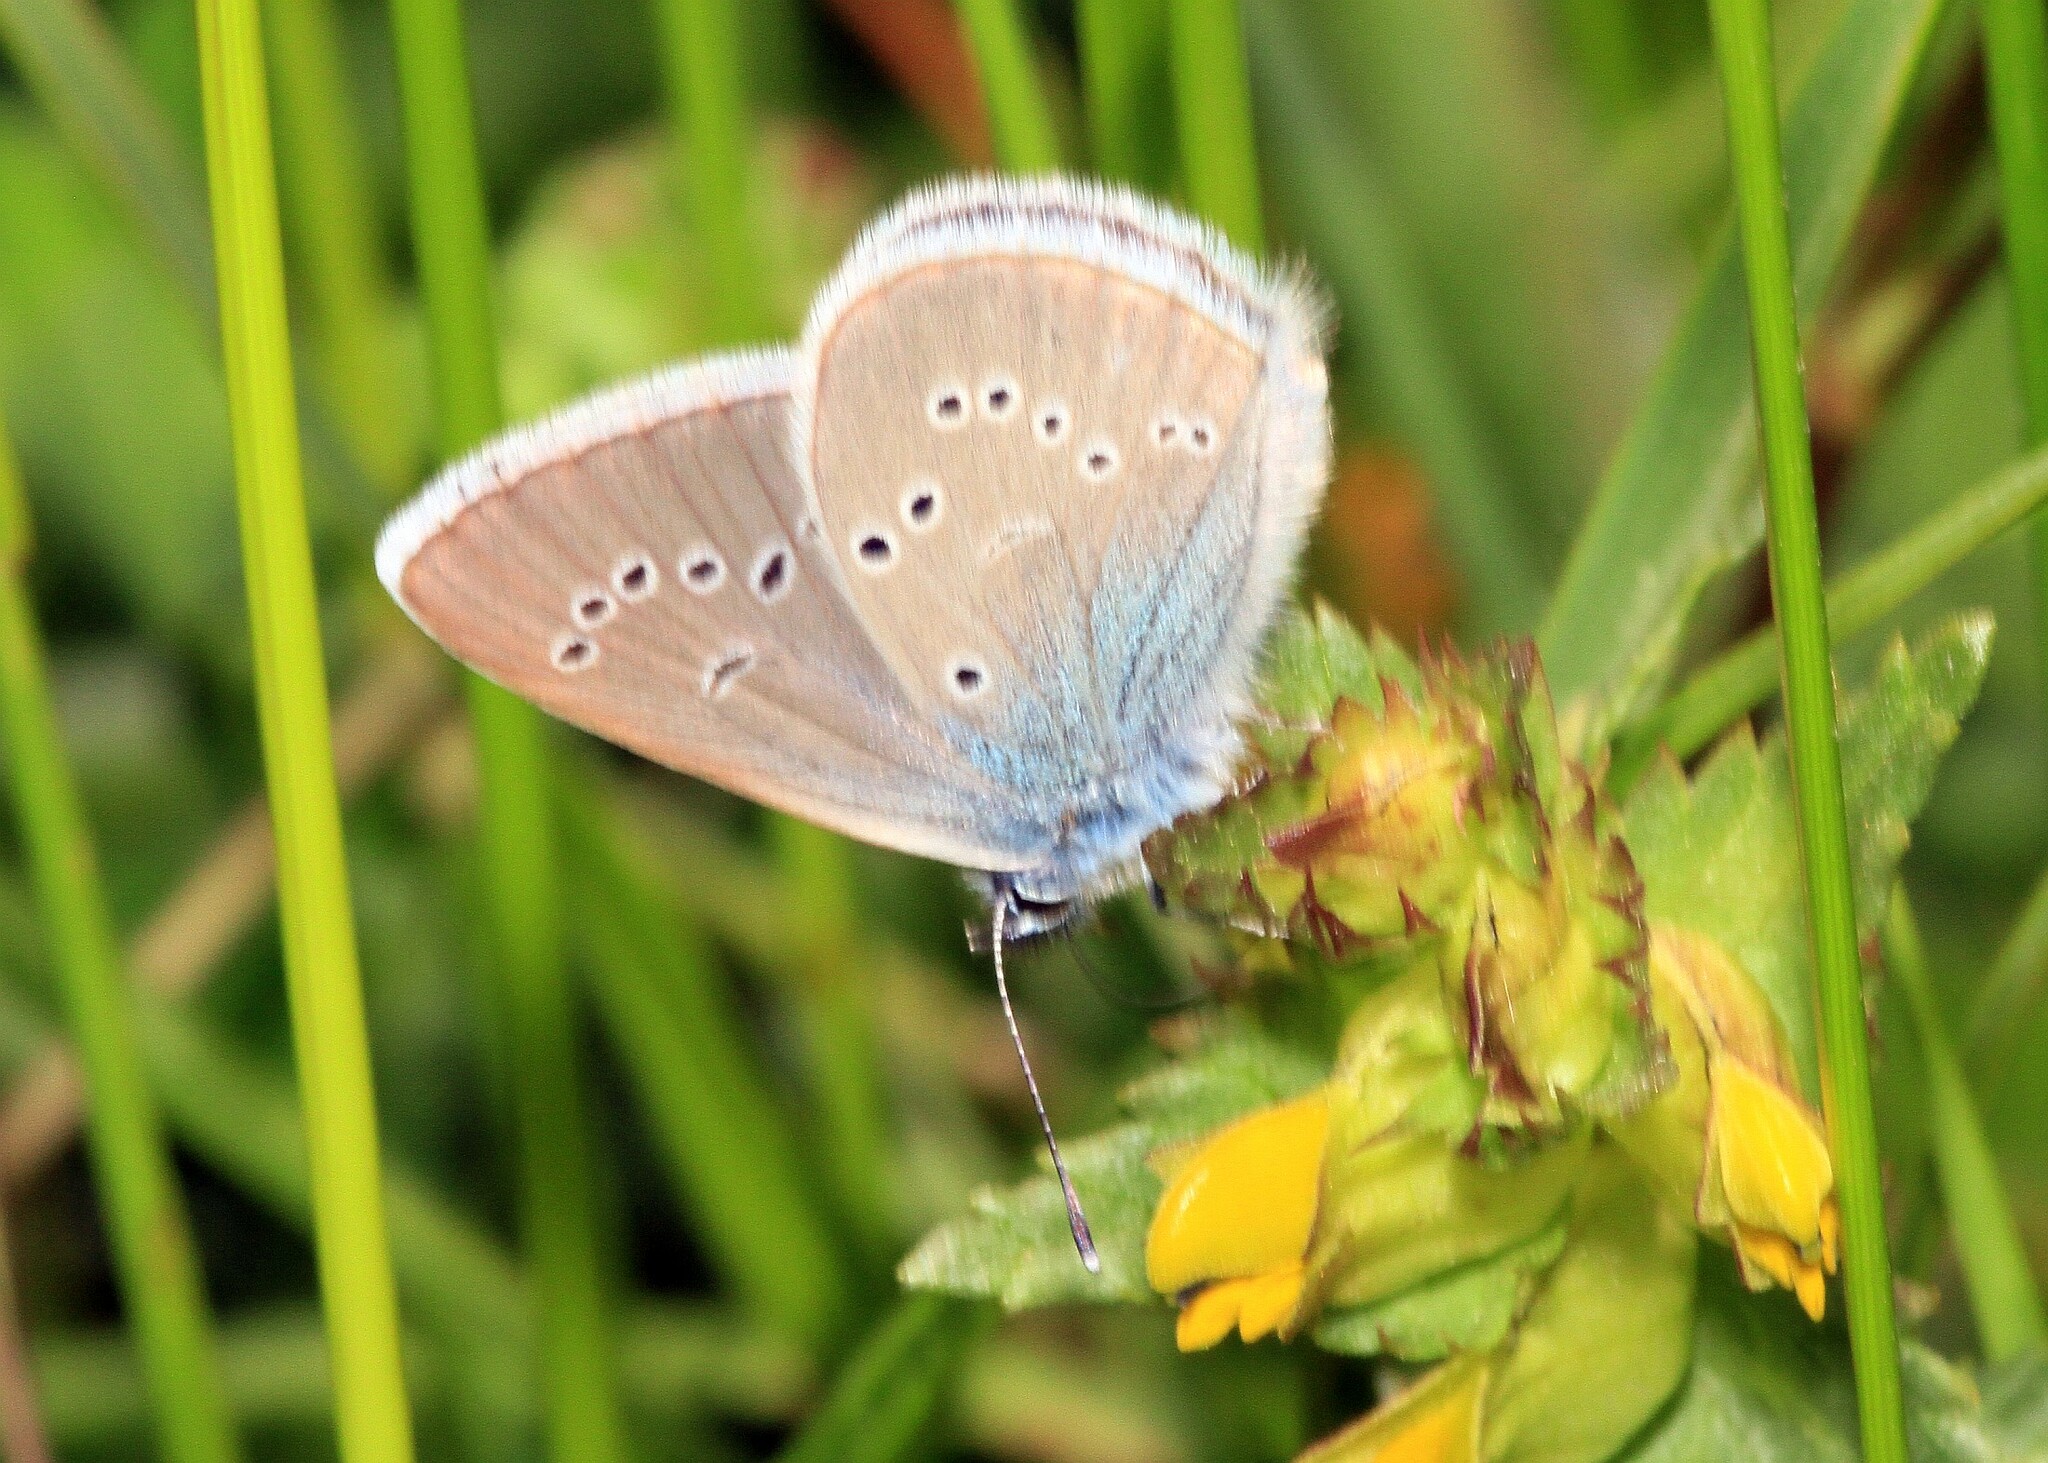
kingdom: Animalia
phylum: Arthropoda
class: Insecta
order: Lepidoptera
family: Lycaenidae
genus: Cyaniris
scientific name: Cyaniris semiargus
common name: Mazarine blue
